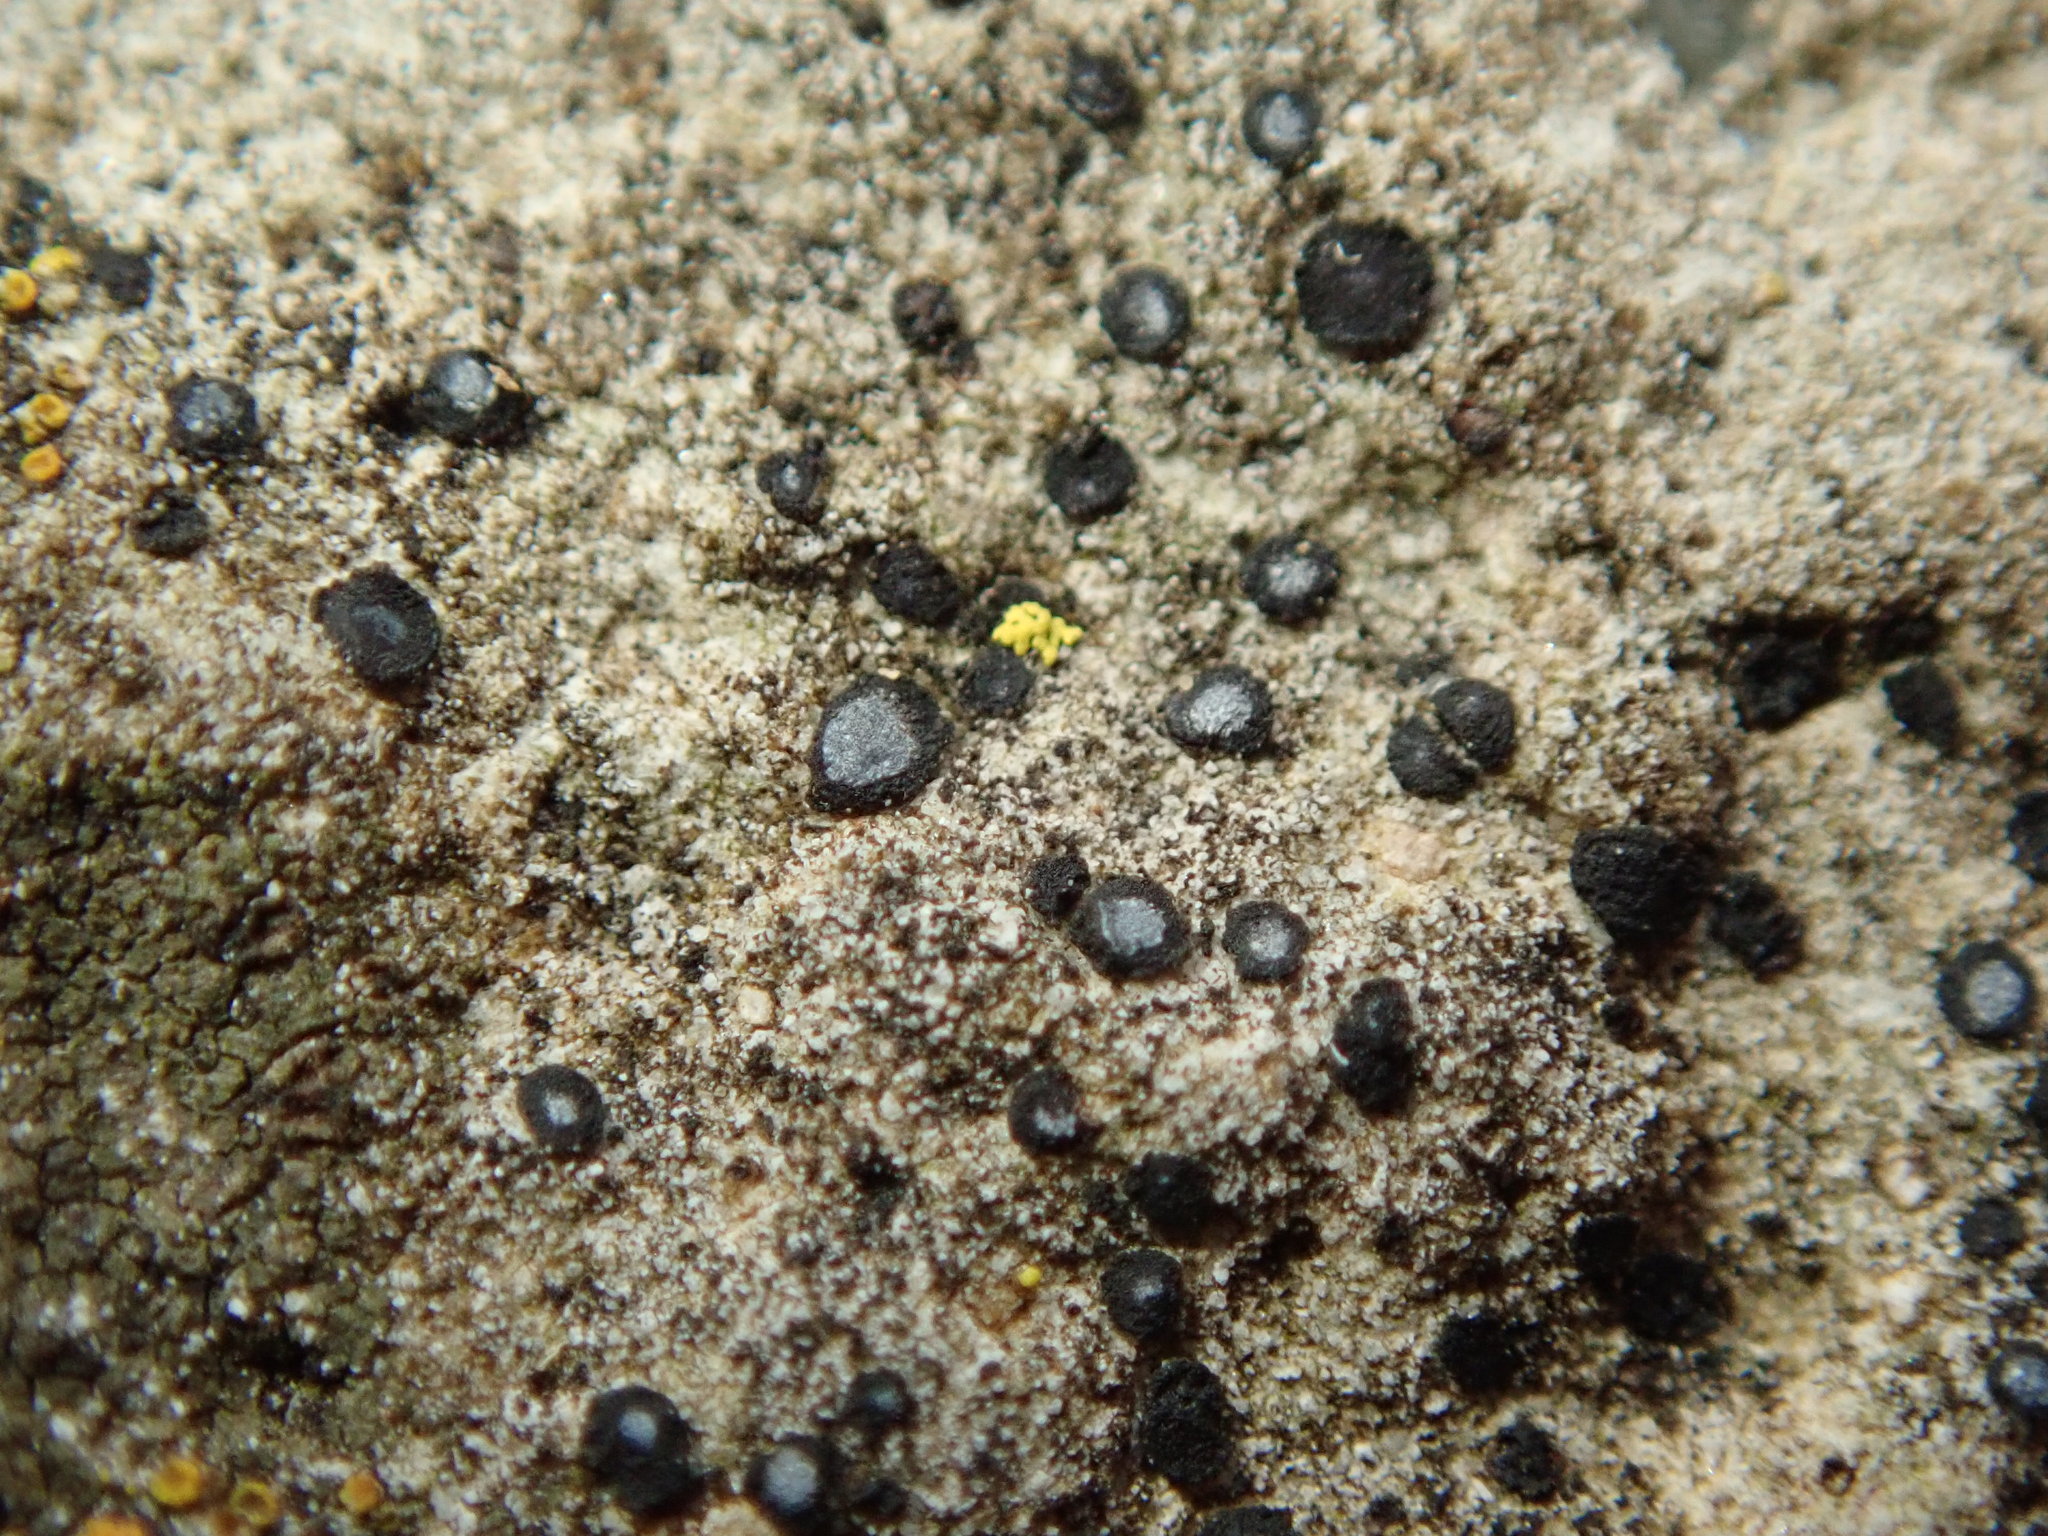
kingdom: Fungi
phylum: Ascomycota
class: Lecanoromycetes
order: Acarosporales
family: Acarosporaceae
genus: Sarcogyne
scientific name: Sarcogyne regularis
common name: Frosted grain-spored lichen
